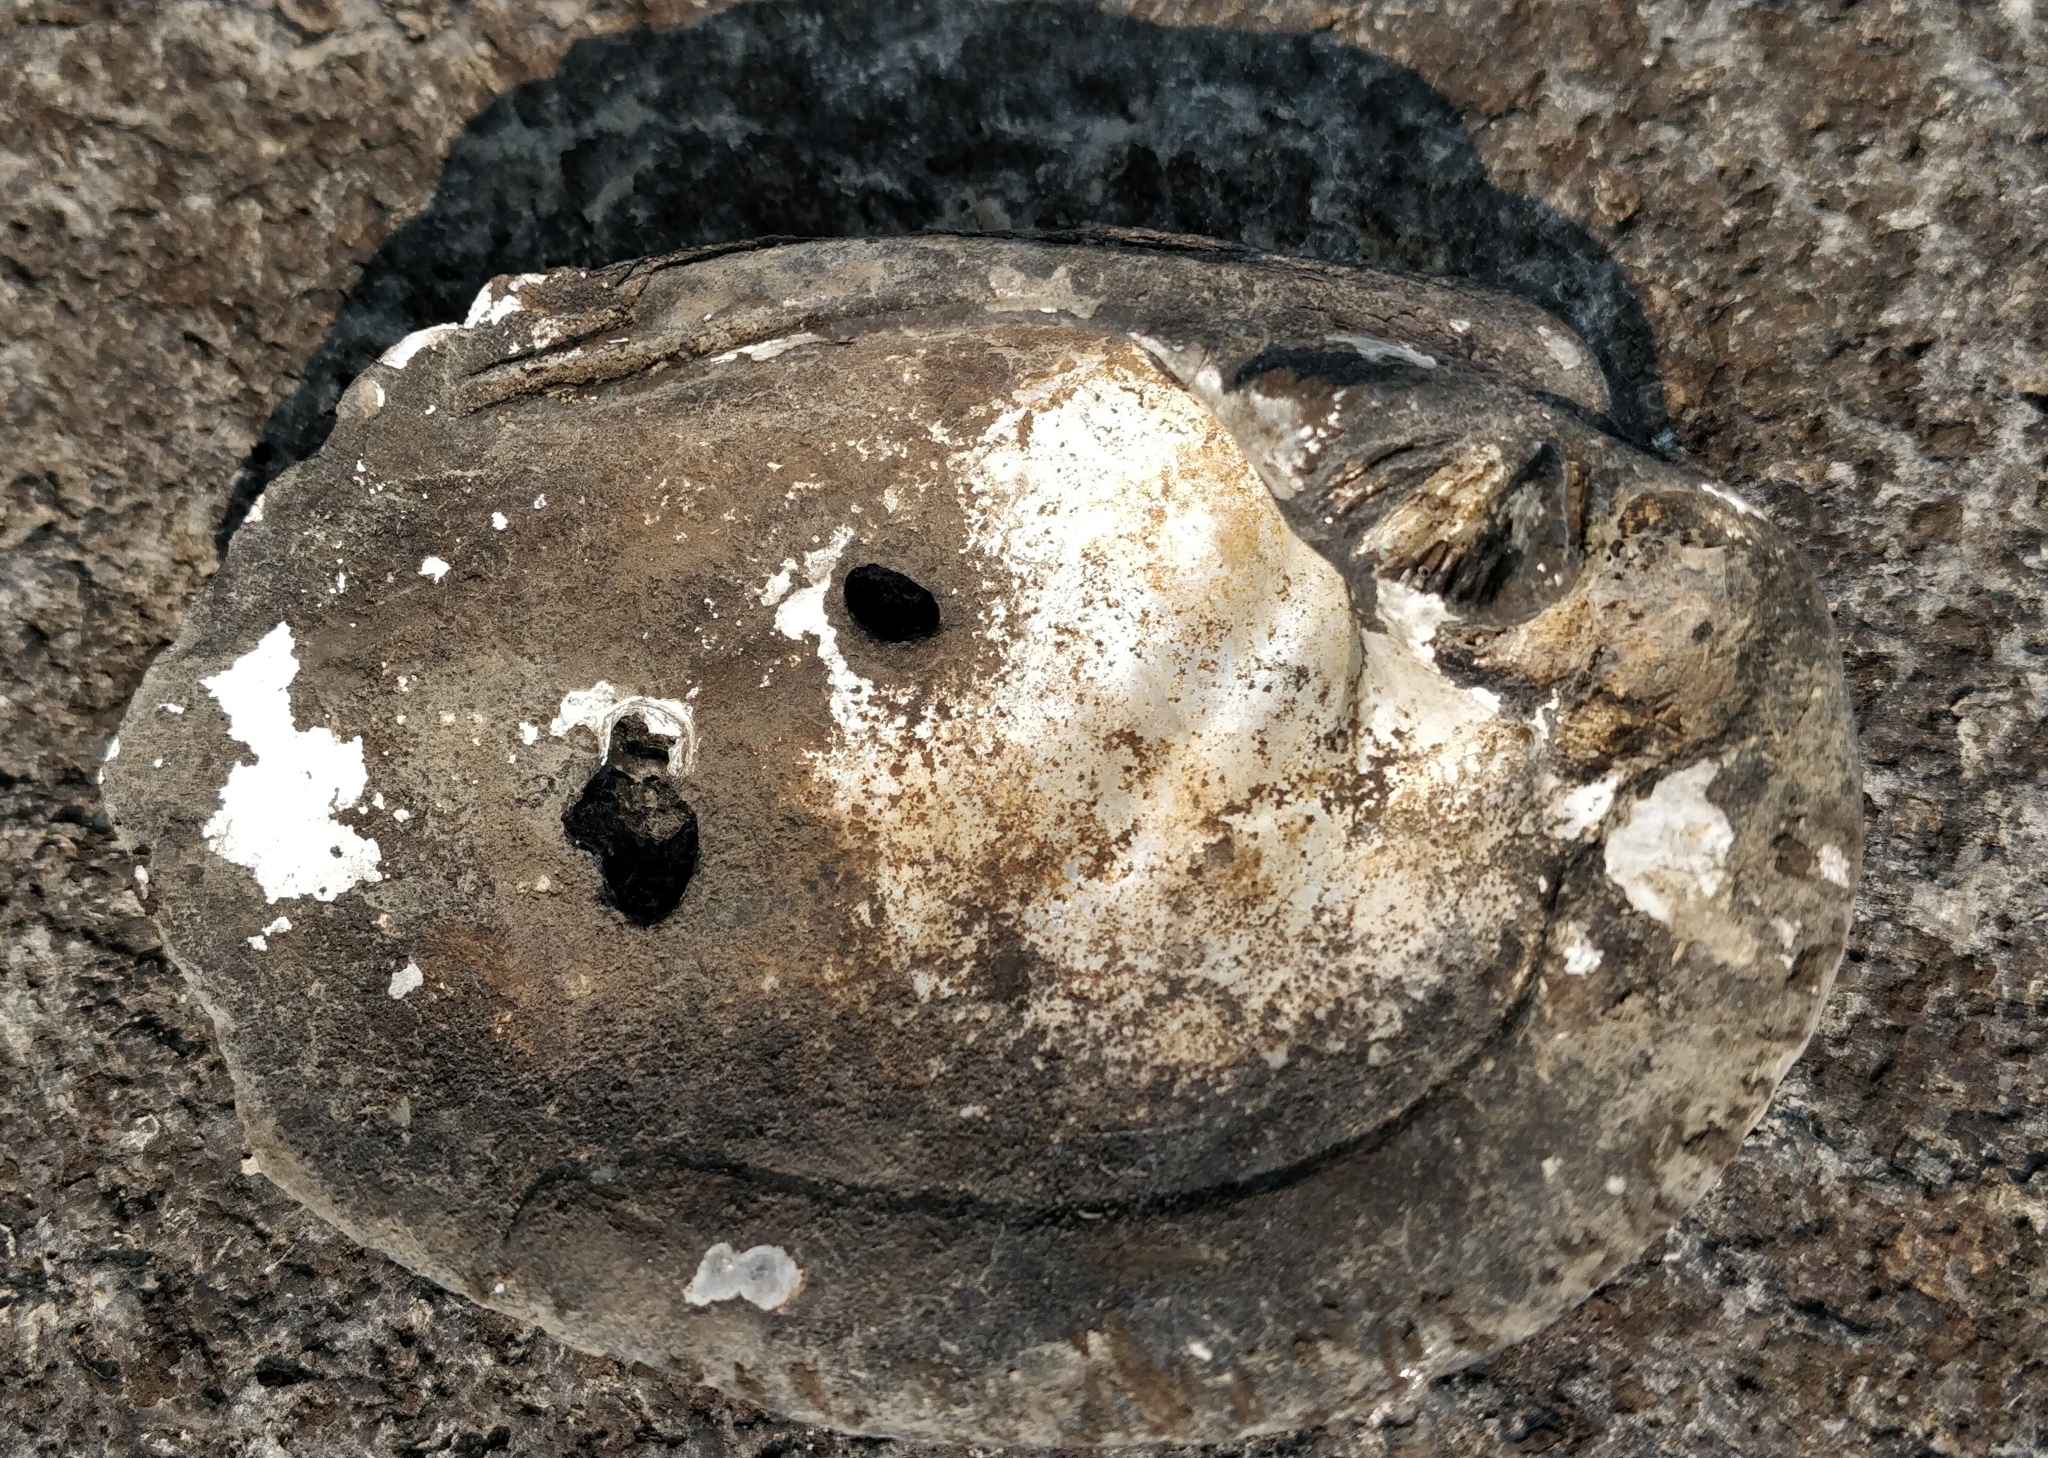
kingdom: Animalia
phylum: Mollusca
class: Bivalvia
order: Unionida
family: Unionidae
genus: Amblema
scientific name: Amblema plicata
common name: Threeridge
